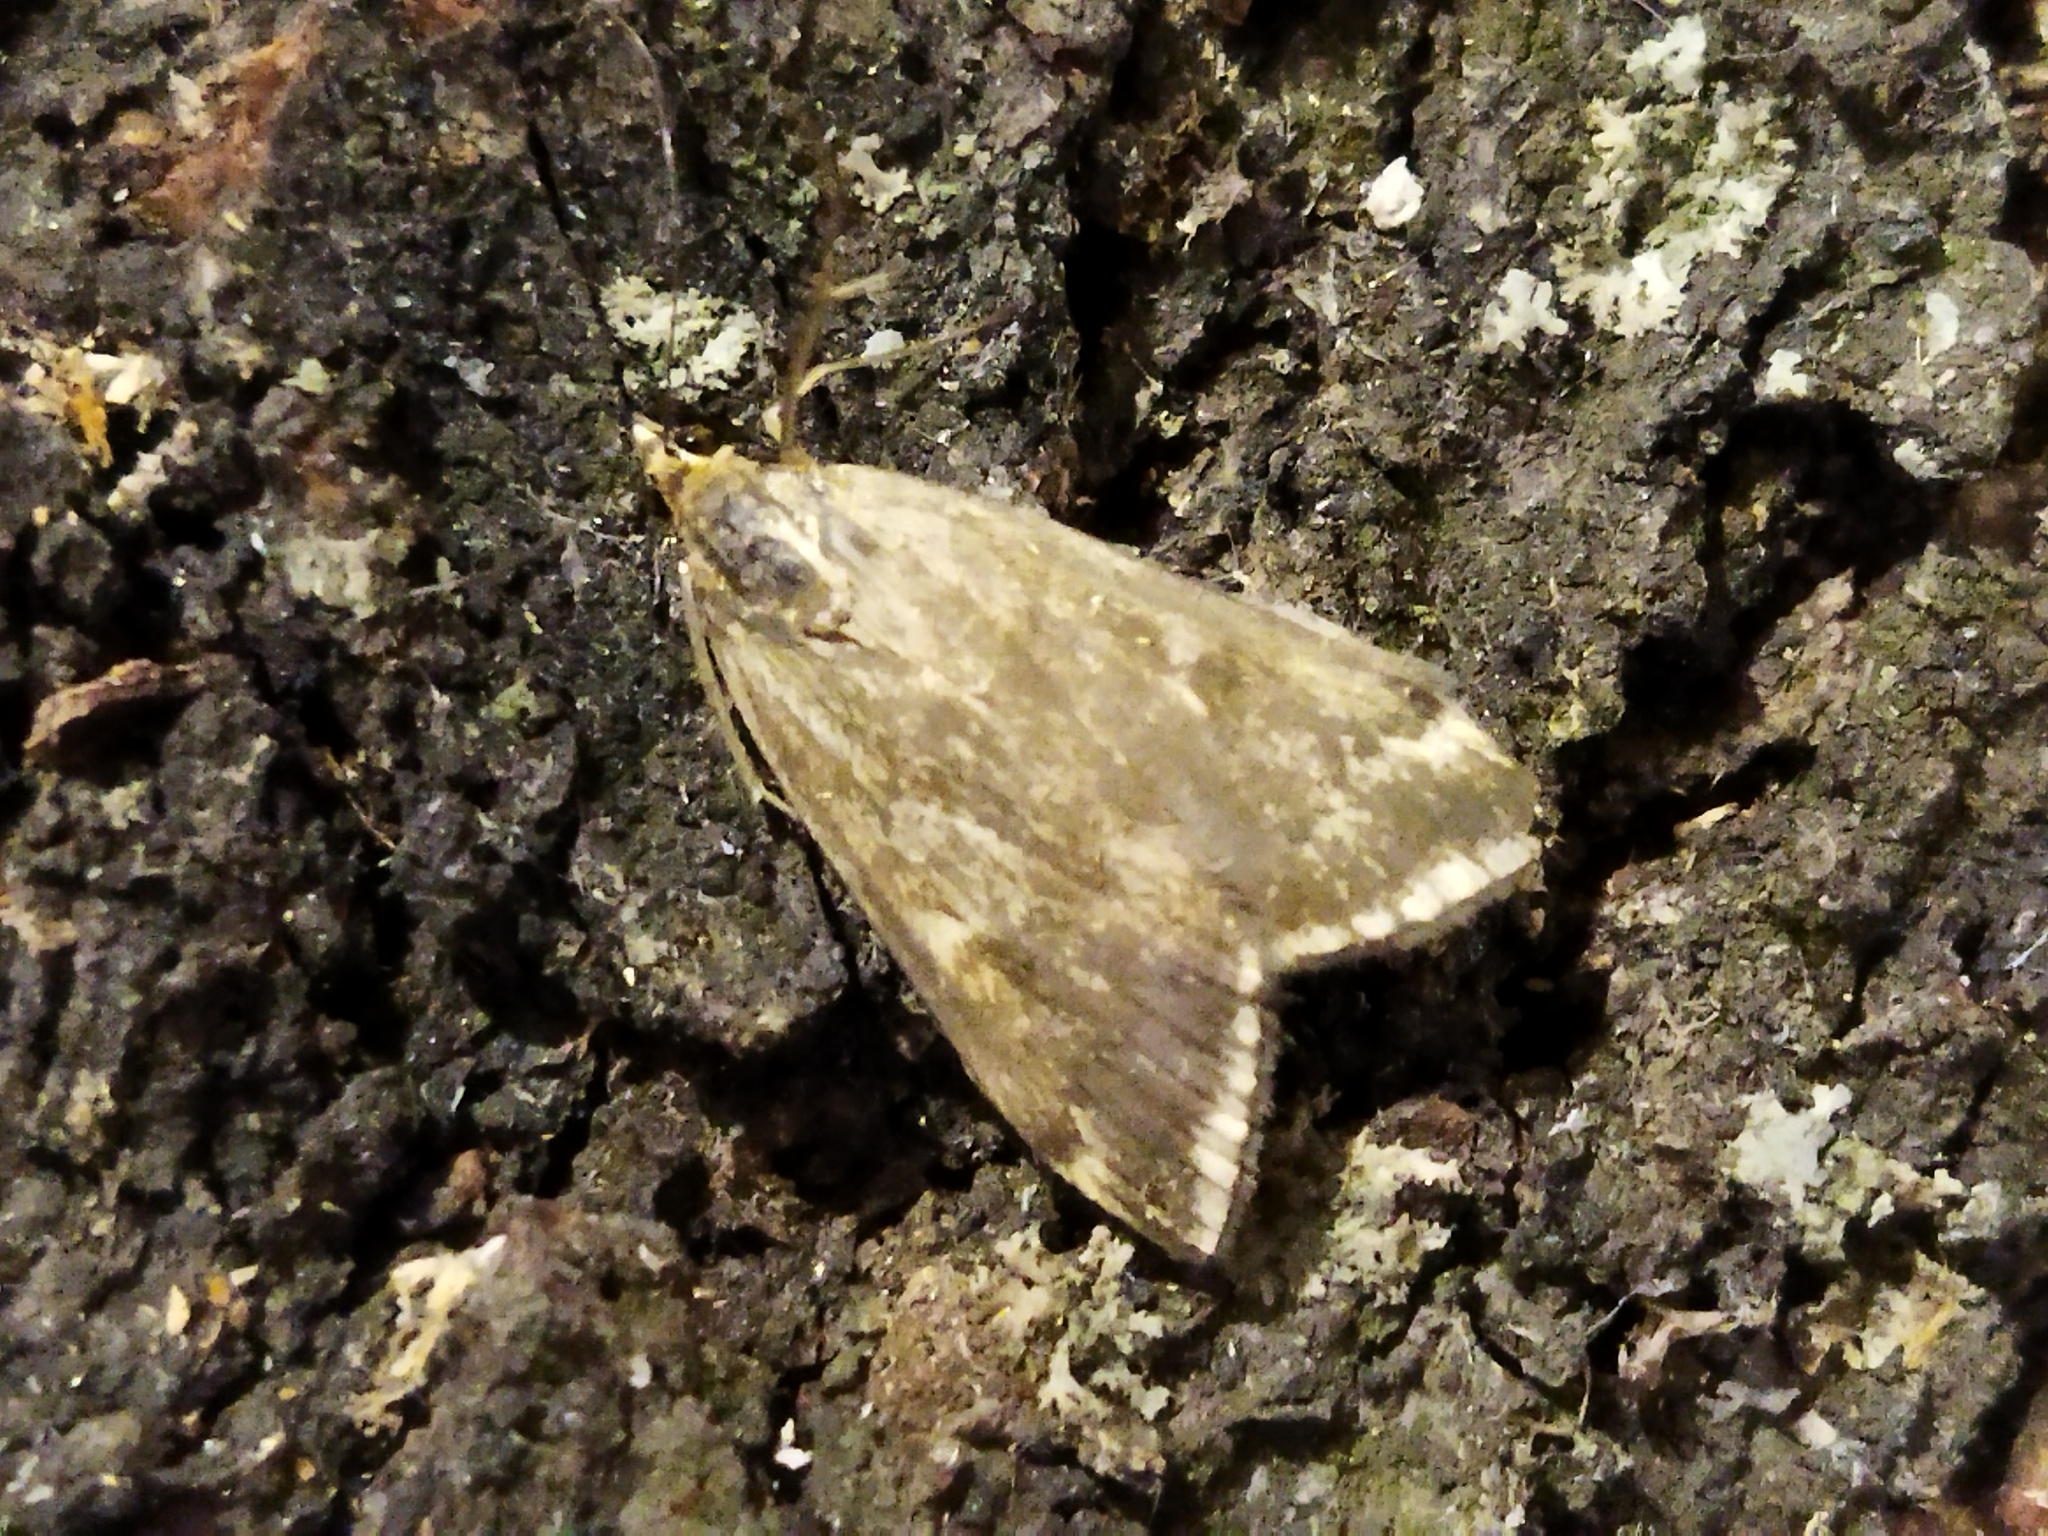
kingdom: Animalia
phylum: Arthropoda
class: Insecta
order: Lepidoptera
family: Crambidae
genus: Loxostege
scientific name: Loxostege sticticalis
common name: Crambid moth
